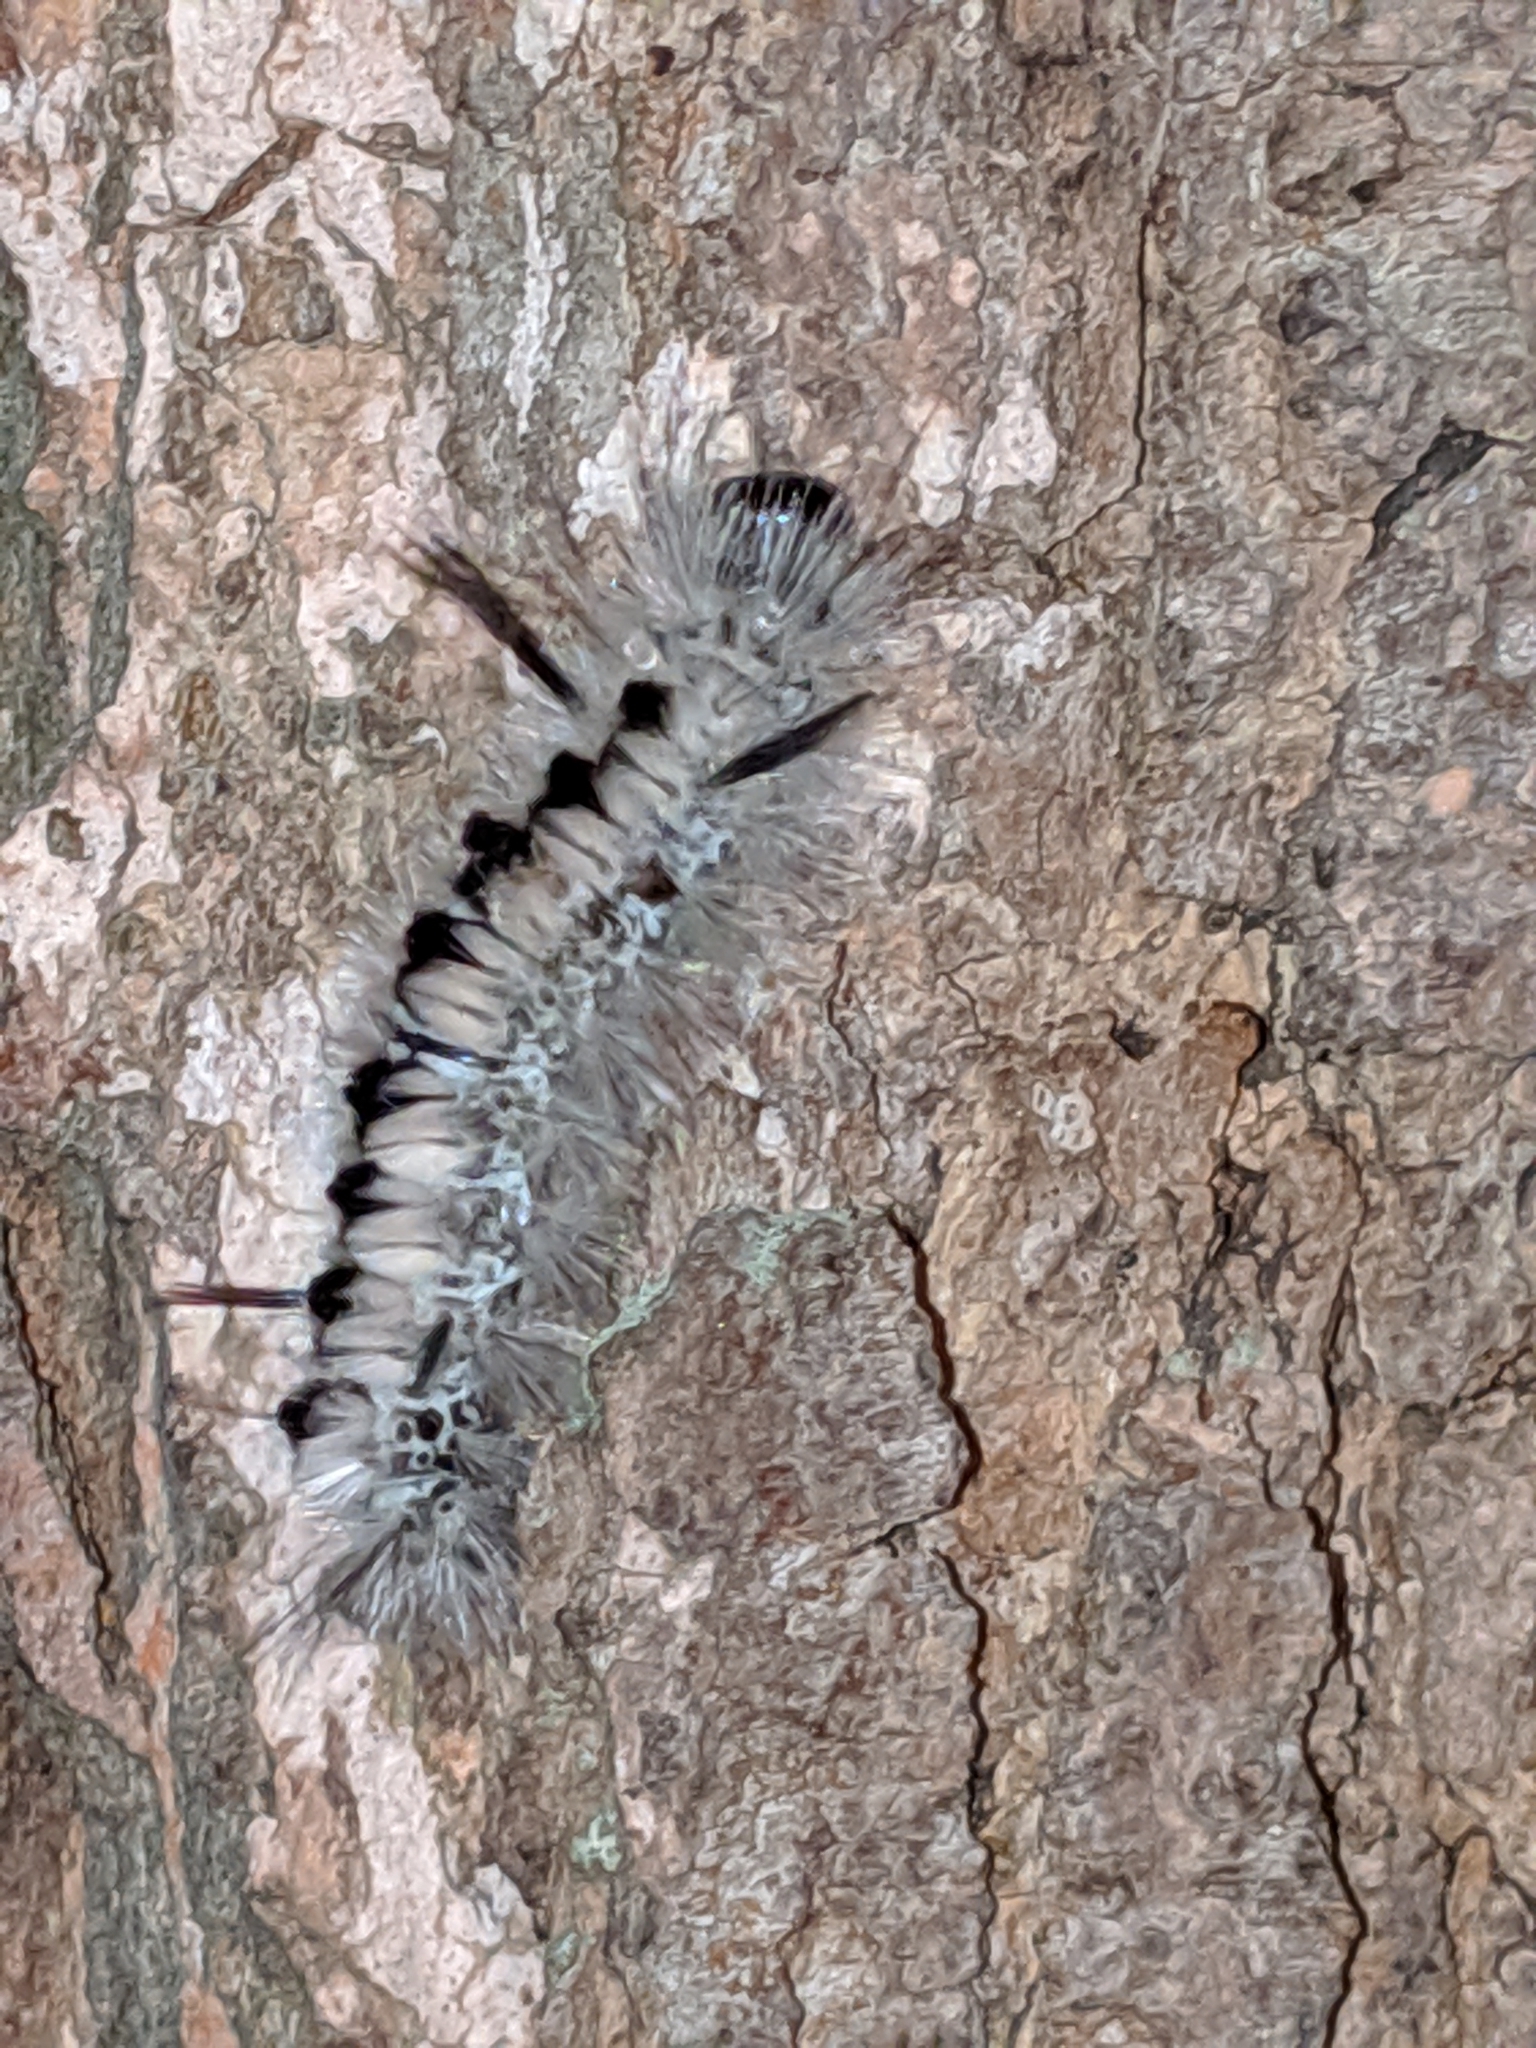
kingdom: Animalia
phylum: Arthropoda
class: Insecta
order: Lepidoptera
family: Erebidae
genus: Lophocampa
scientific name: Lophocampa caryae
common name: Hickory tussock moth
